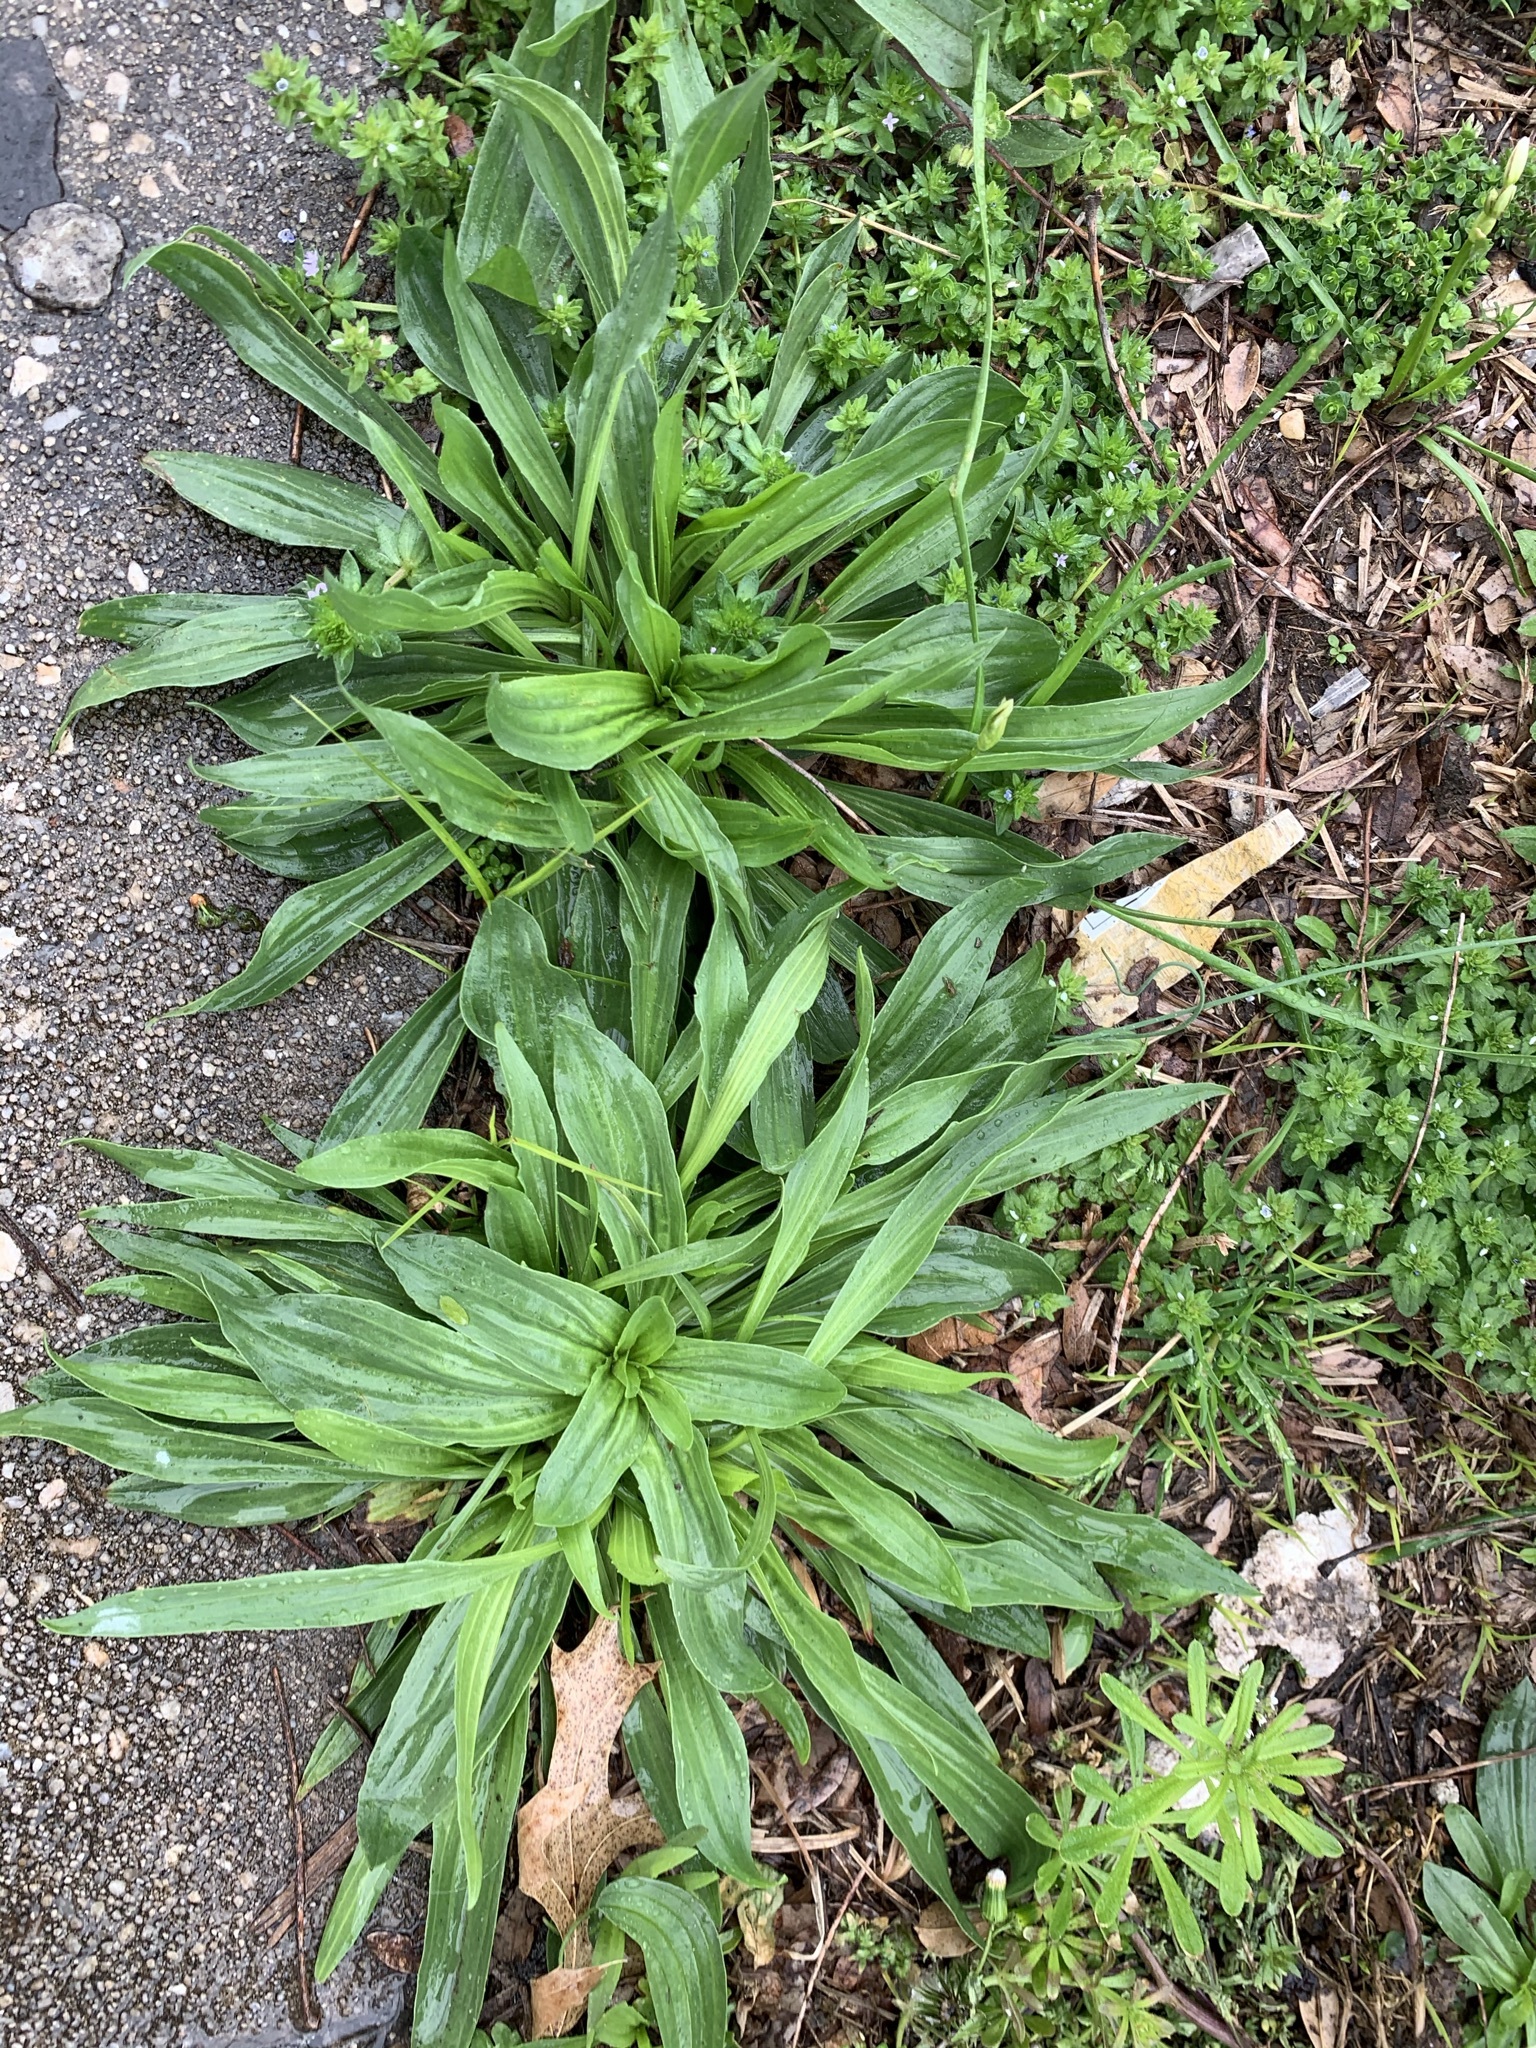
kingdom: Plantae
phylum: Tracheophyta
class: Magnoliopsida
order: Lamiales
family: Plantaginaceae
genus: Plantago
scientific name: Plantago lanceolata
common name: Ribwort plantain
